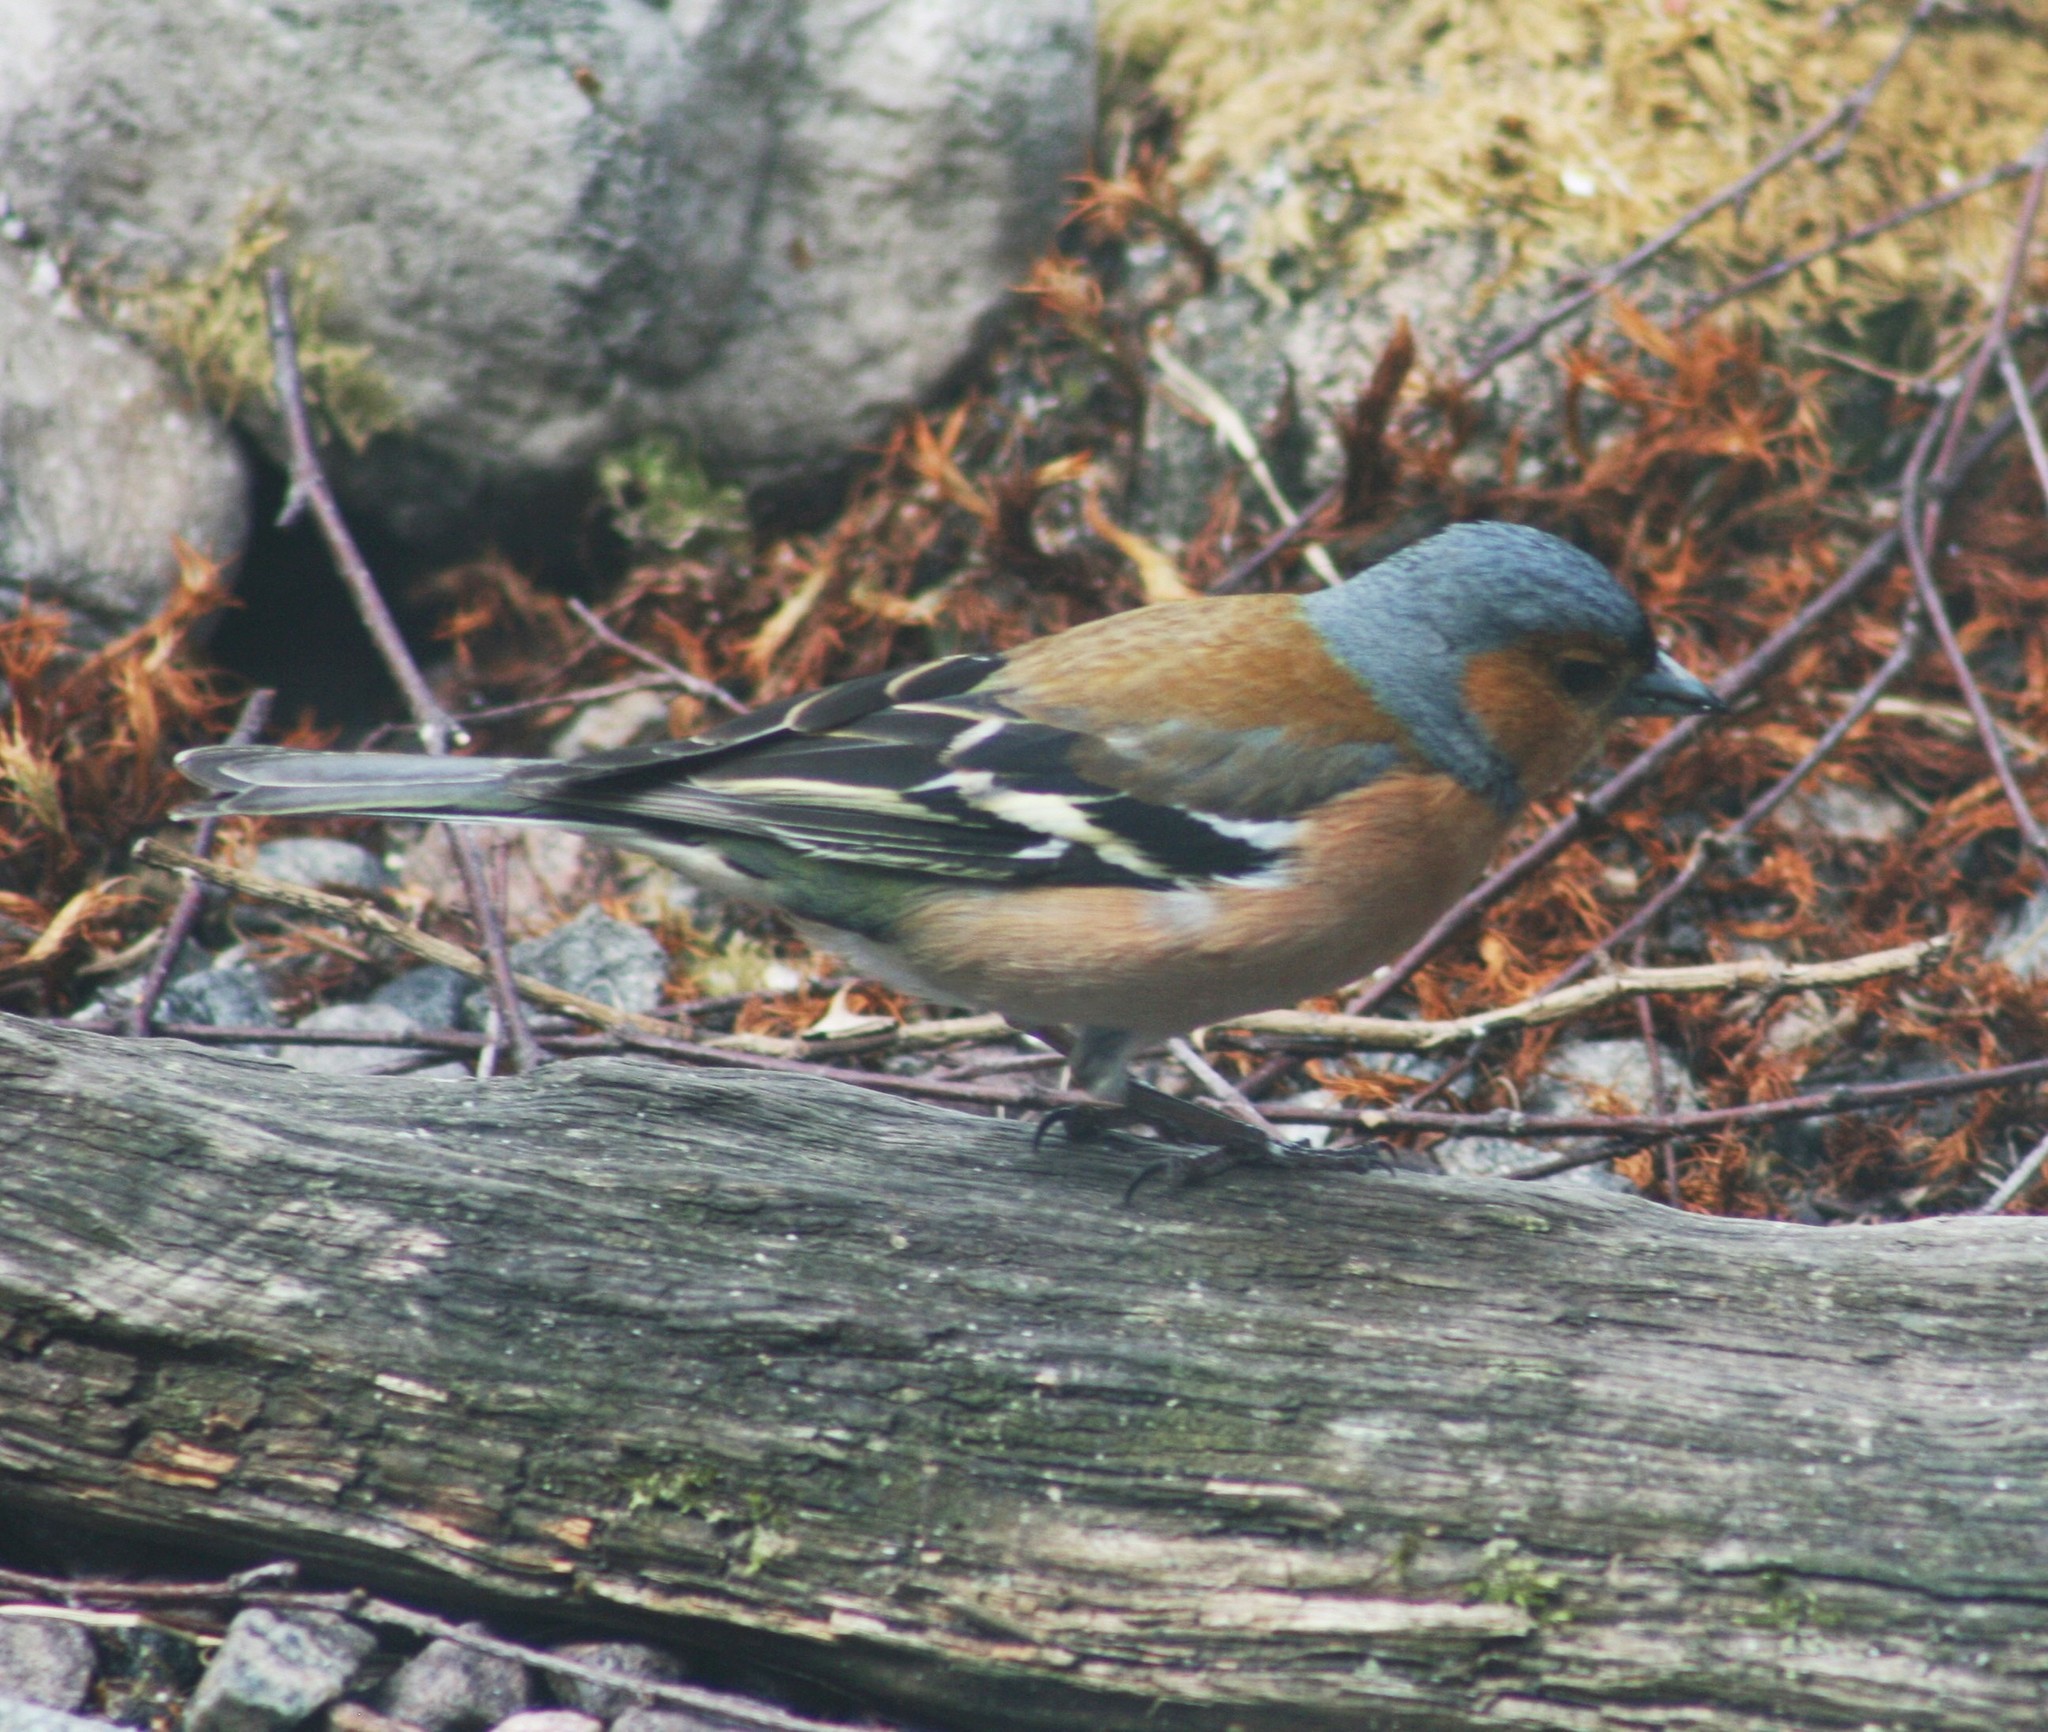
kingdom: Animalia
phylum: Chordata
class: Aves
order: Passeriformes
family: Fringillidae
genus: Fringilla
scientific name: Fringilla coelebs
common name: Common chaffinch
